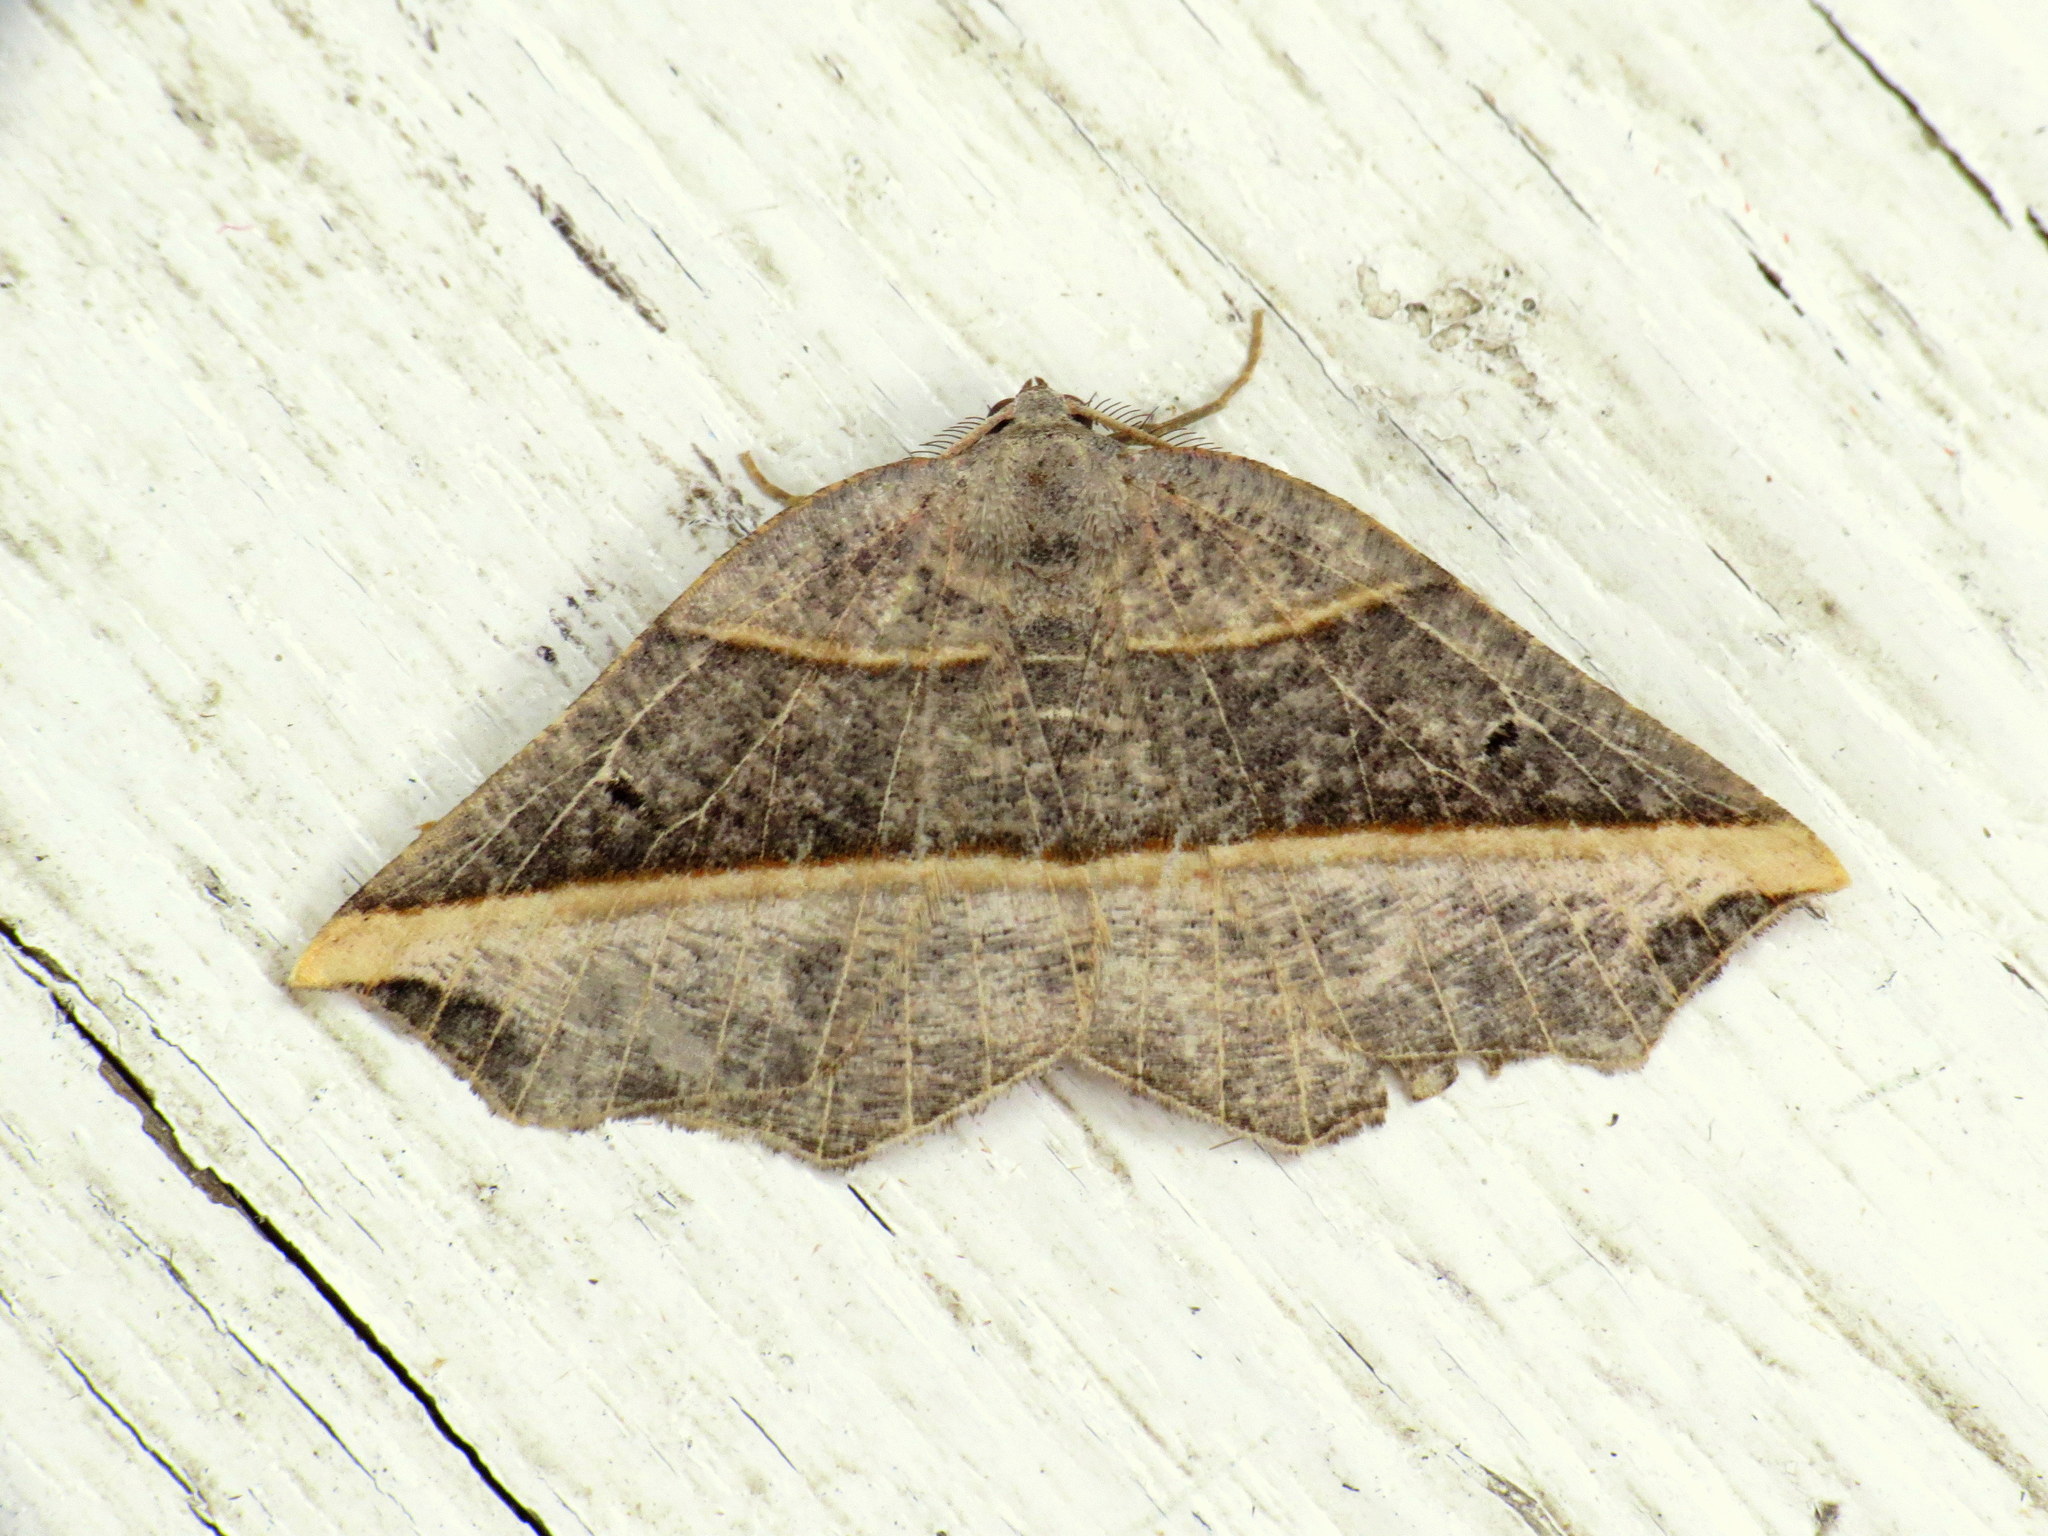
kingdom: Animalia
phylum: Arthropoda
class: Insecta
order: Lepidoptera
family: Geometridae
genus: Metanema
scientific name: Metanema determinata
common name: Dark metanema
